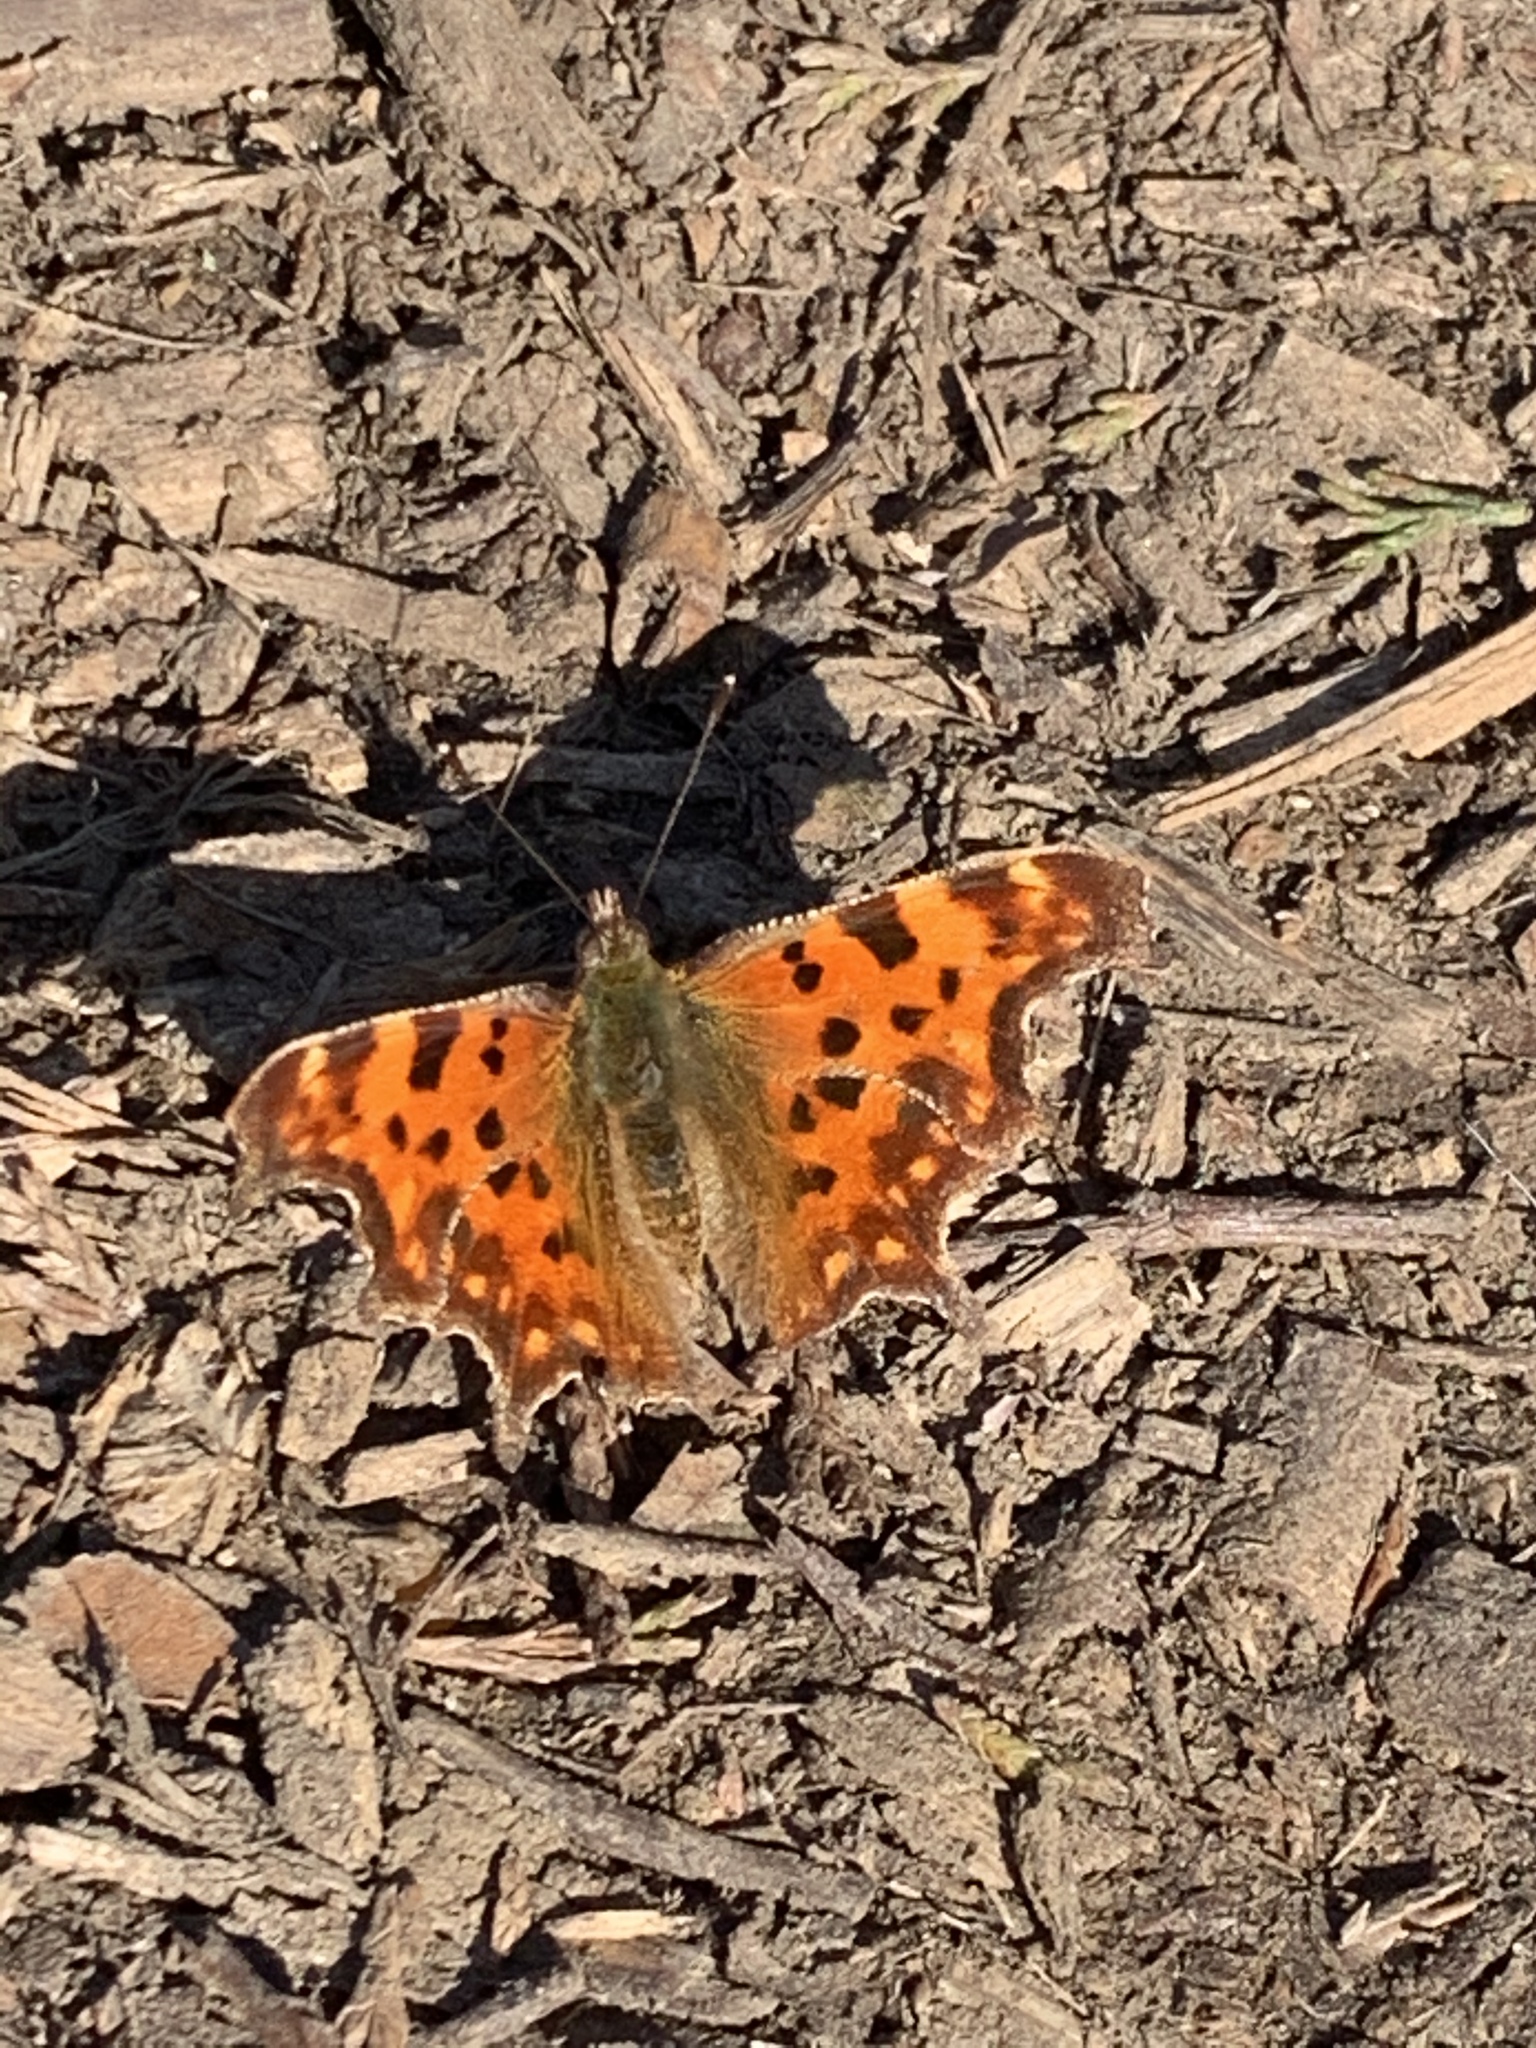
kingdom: Animalia
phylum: Arthropoda
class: Insecta
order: Lepidoptera
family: Nymphalidae
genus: Polygonia
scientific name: Polygonia c-album
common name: Comma
